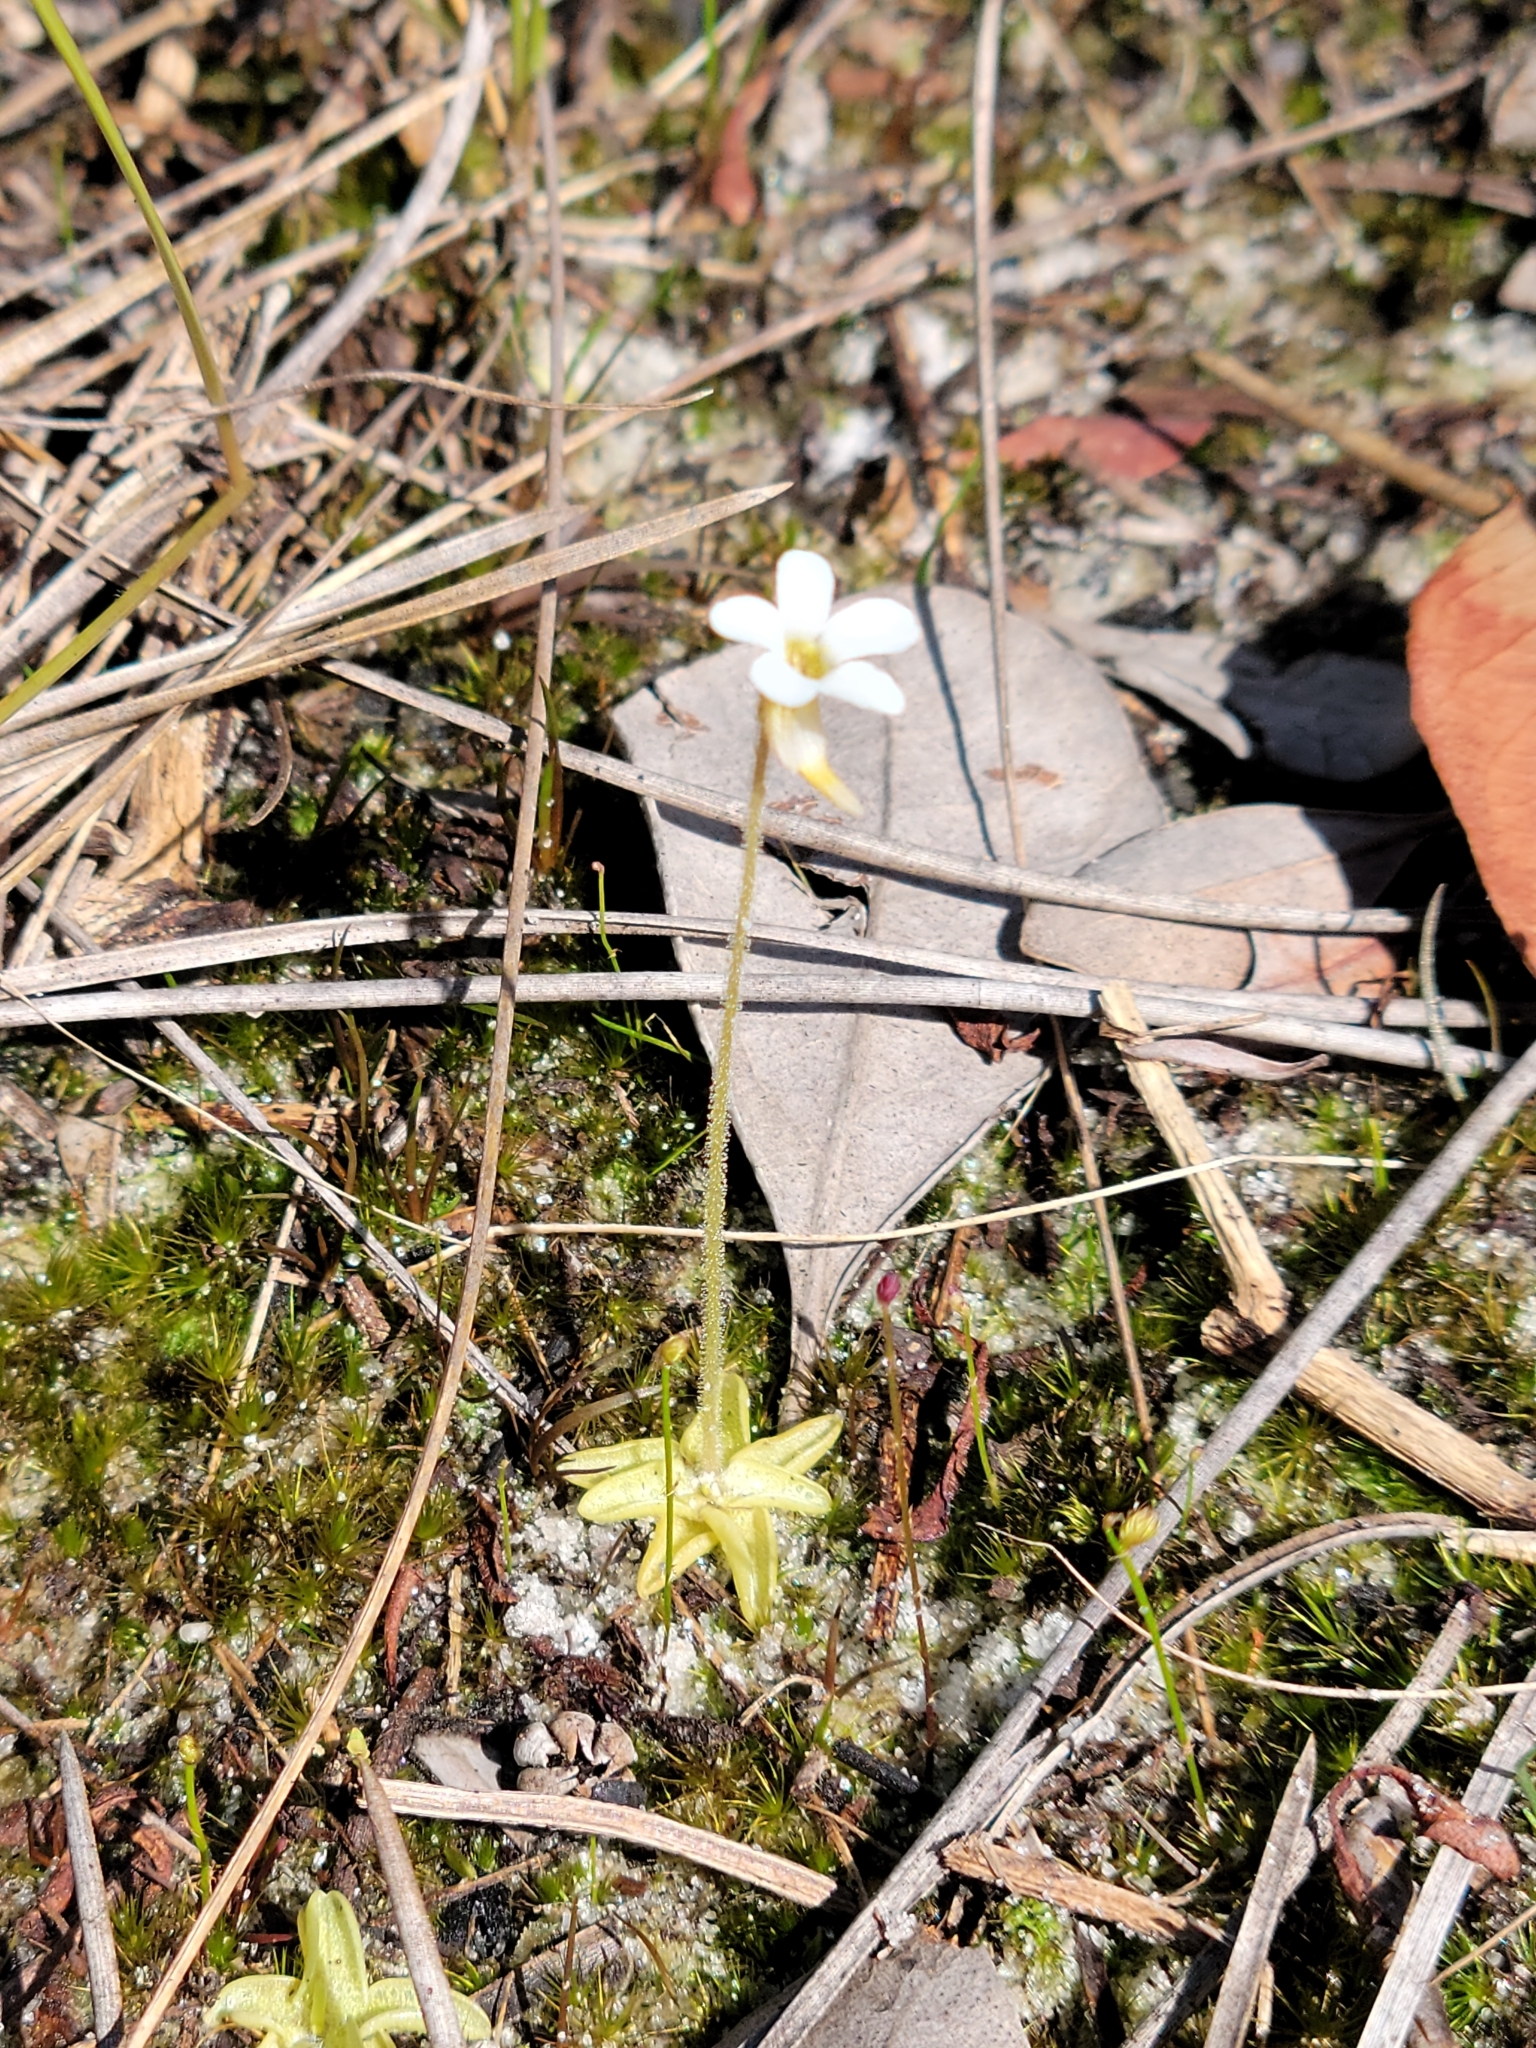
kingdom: Plantae
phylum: Tracheophyta
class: Magnoliopsida
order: Lamiales
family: Lentibulariaceae
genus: Pinguicula
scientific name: Pinguicula pumila
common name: Small butterwort
